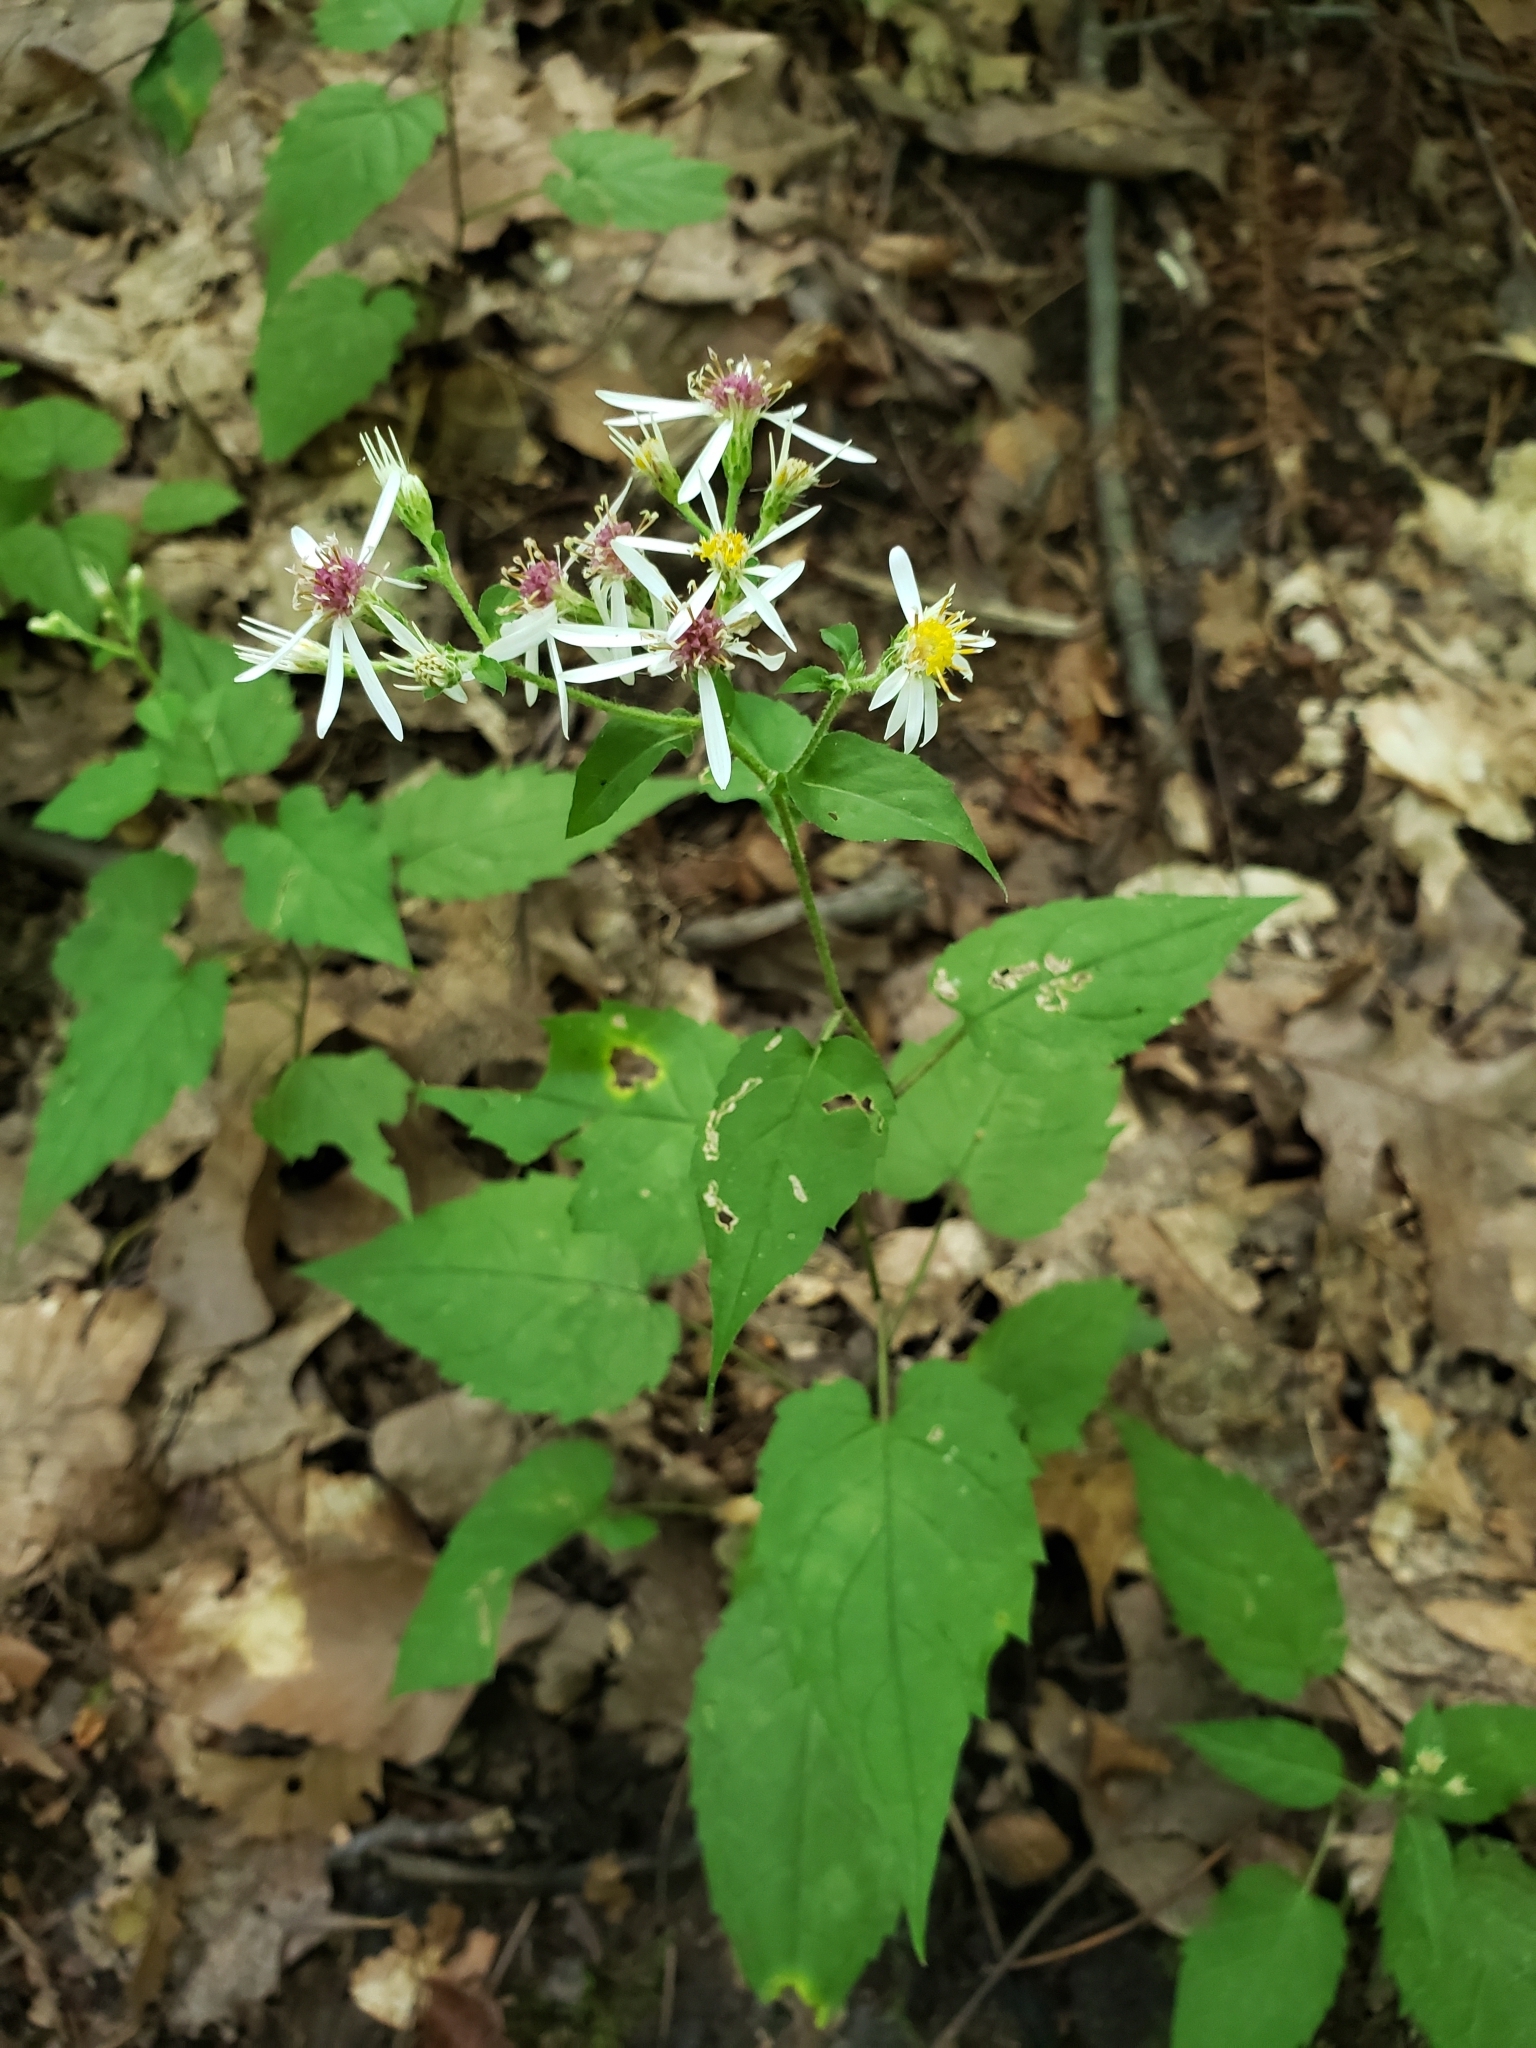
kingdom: Plantae
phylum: Tracheophyta
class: Magnoliopsida
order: Asterales
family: Asteraceae
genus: Eurybia
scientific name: Eurybia divaricata
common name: White wood aster
